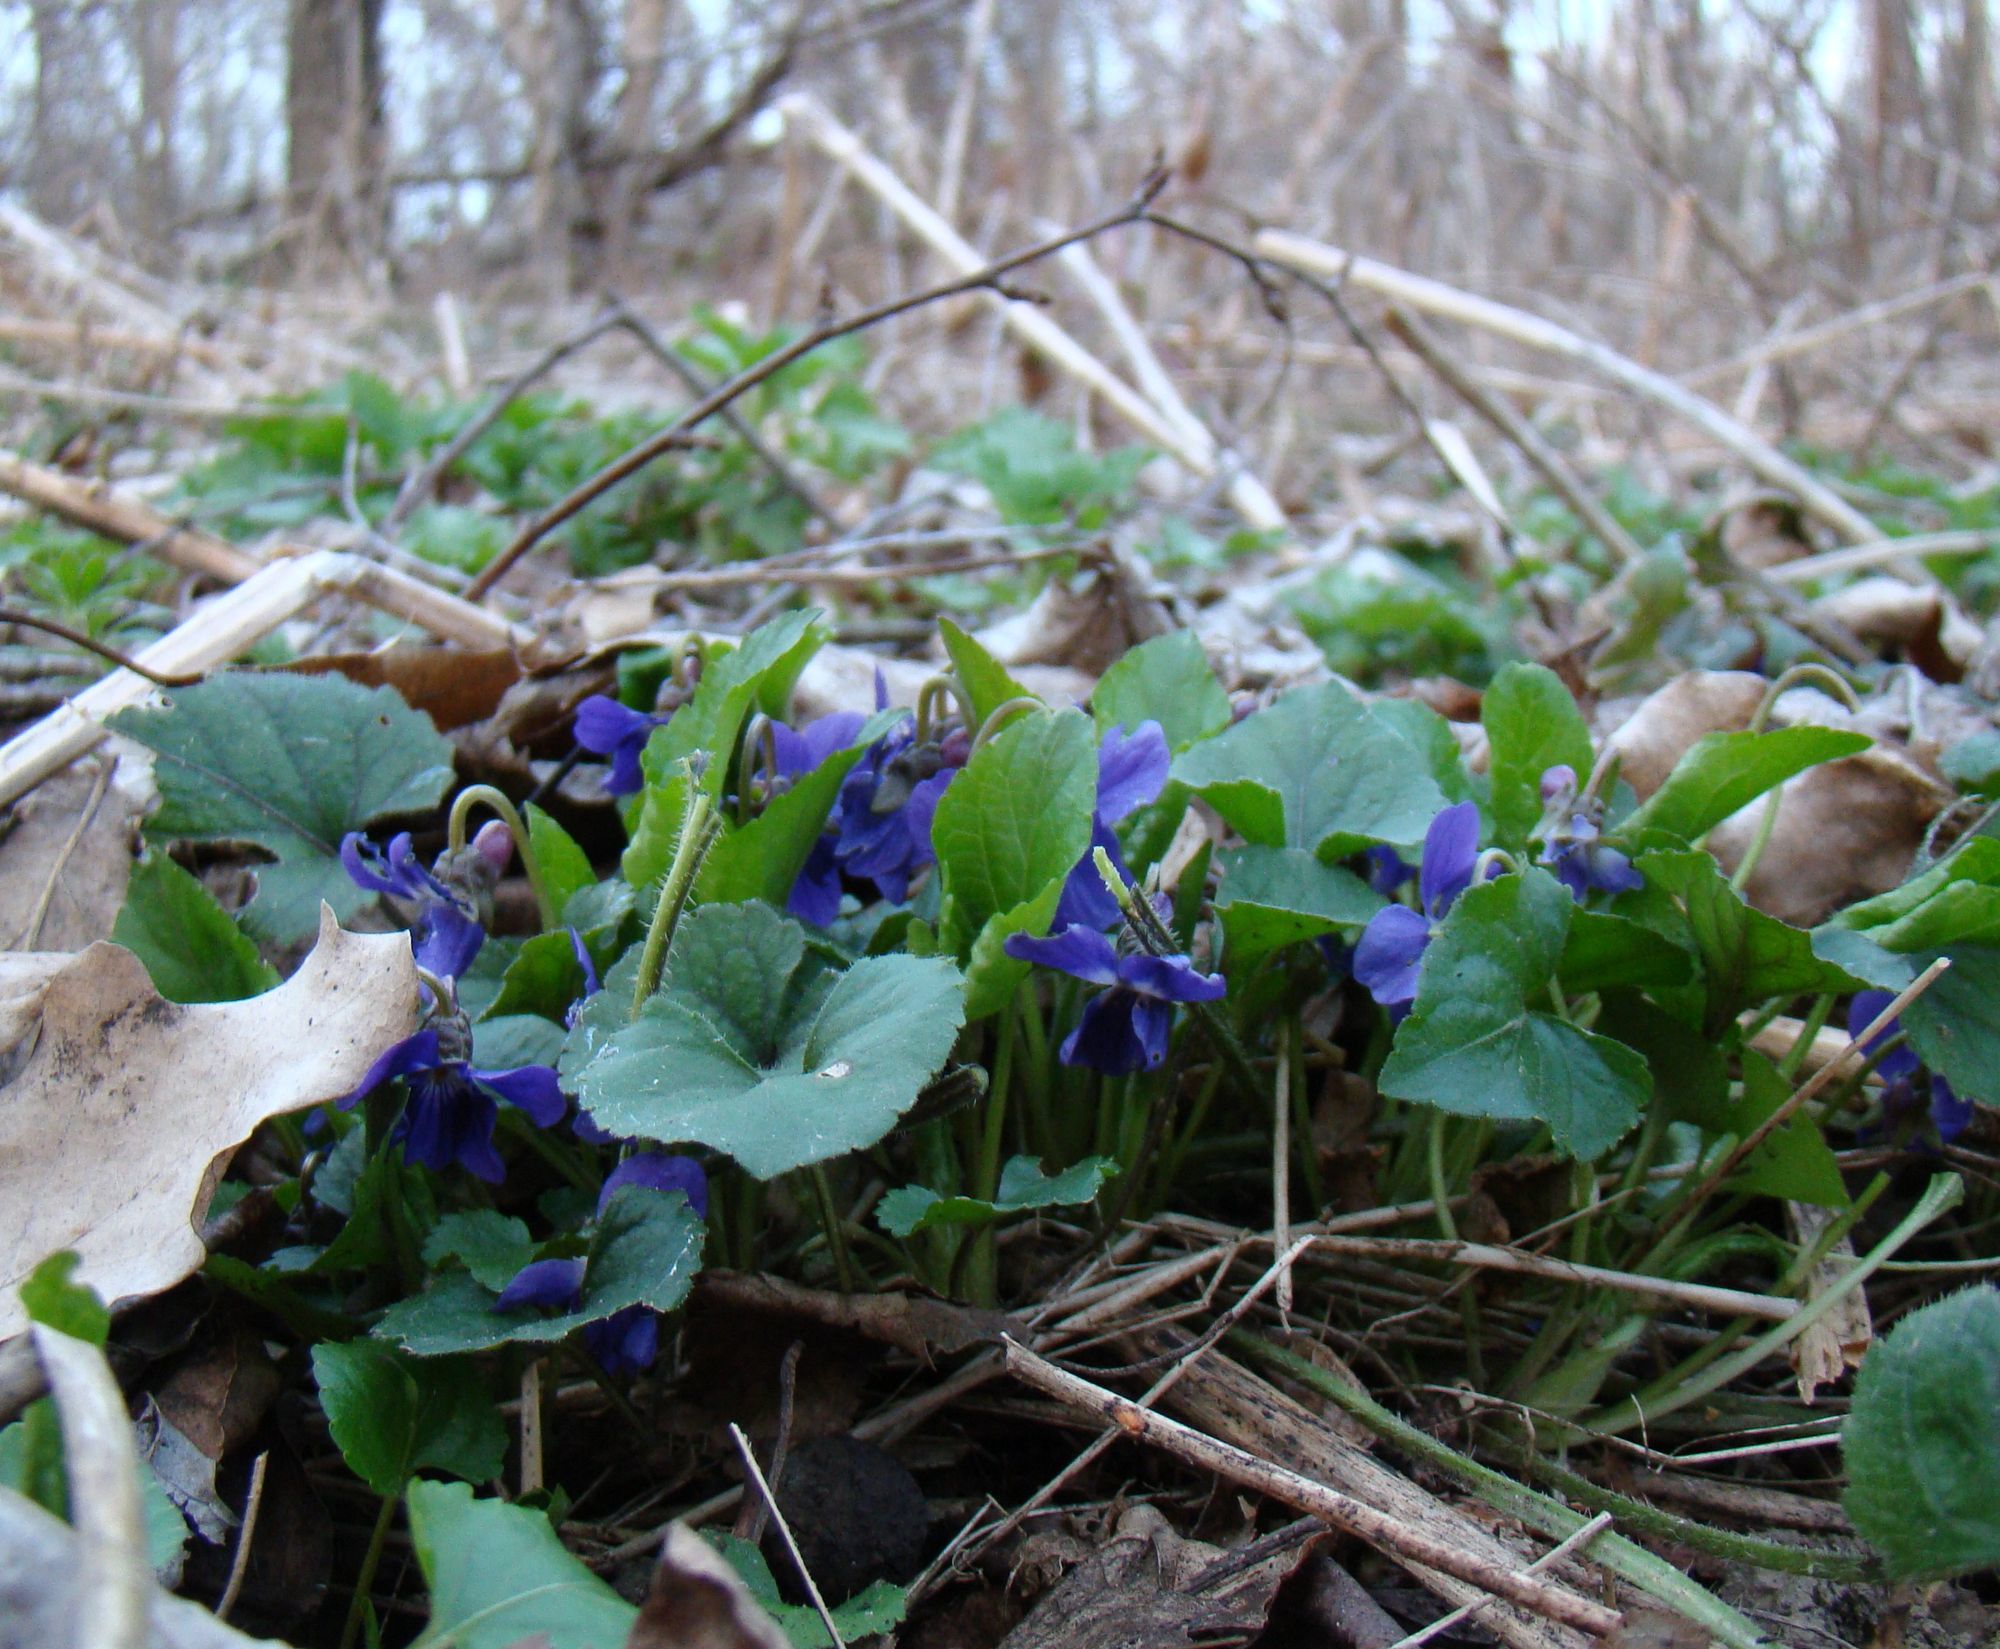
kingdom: Plantae
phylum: Tracheophyta
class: Magnoliopsida
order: Malpighiales
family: Violaceae
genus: Viola
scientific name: Viola odorata
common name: Sweet violet
